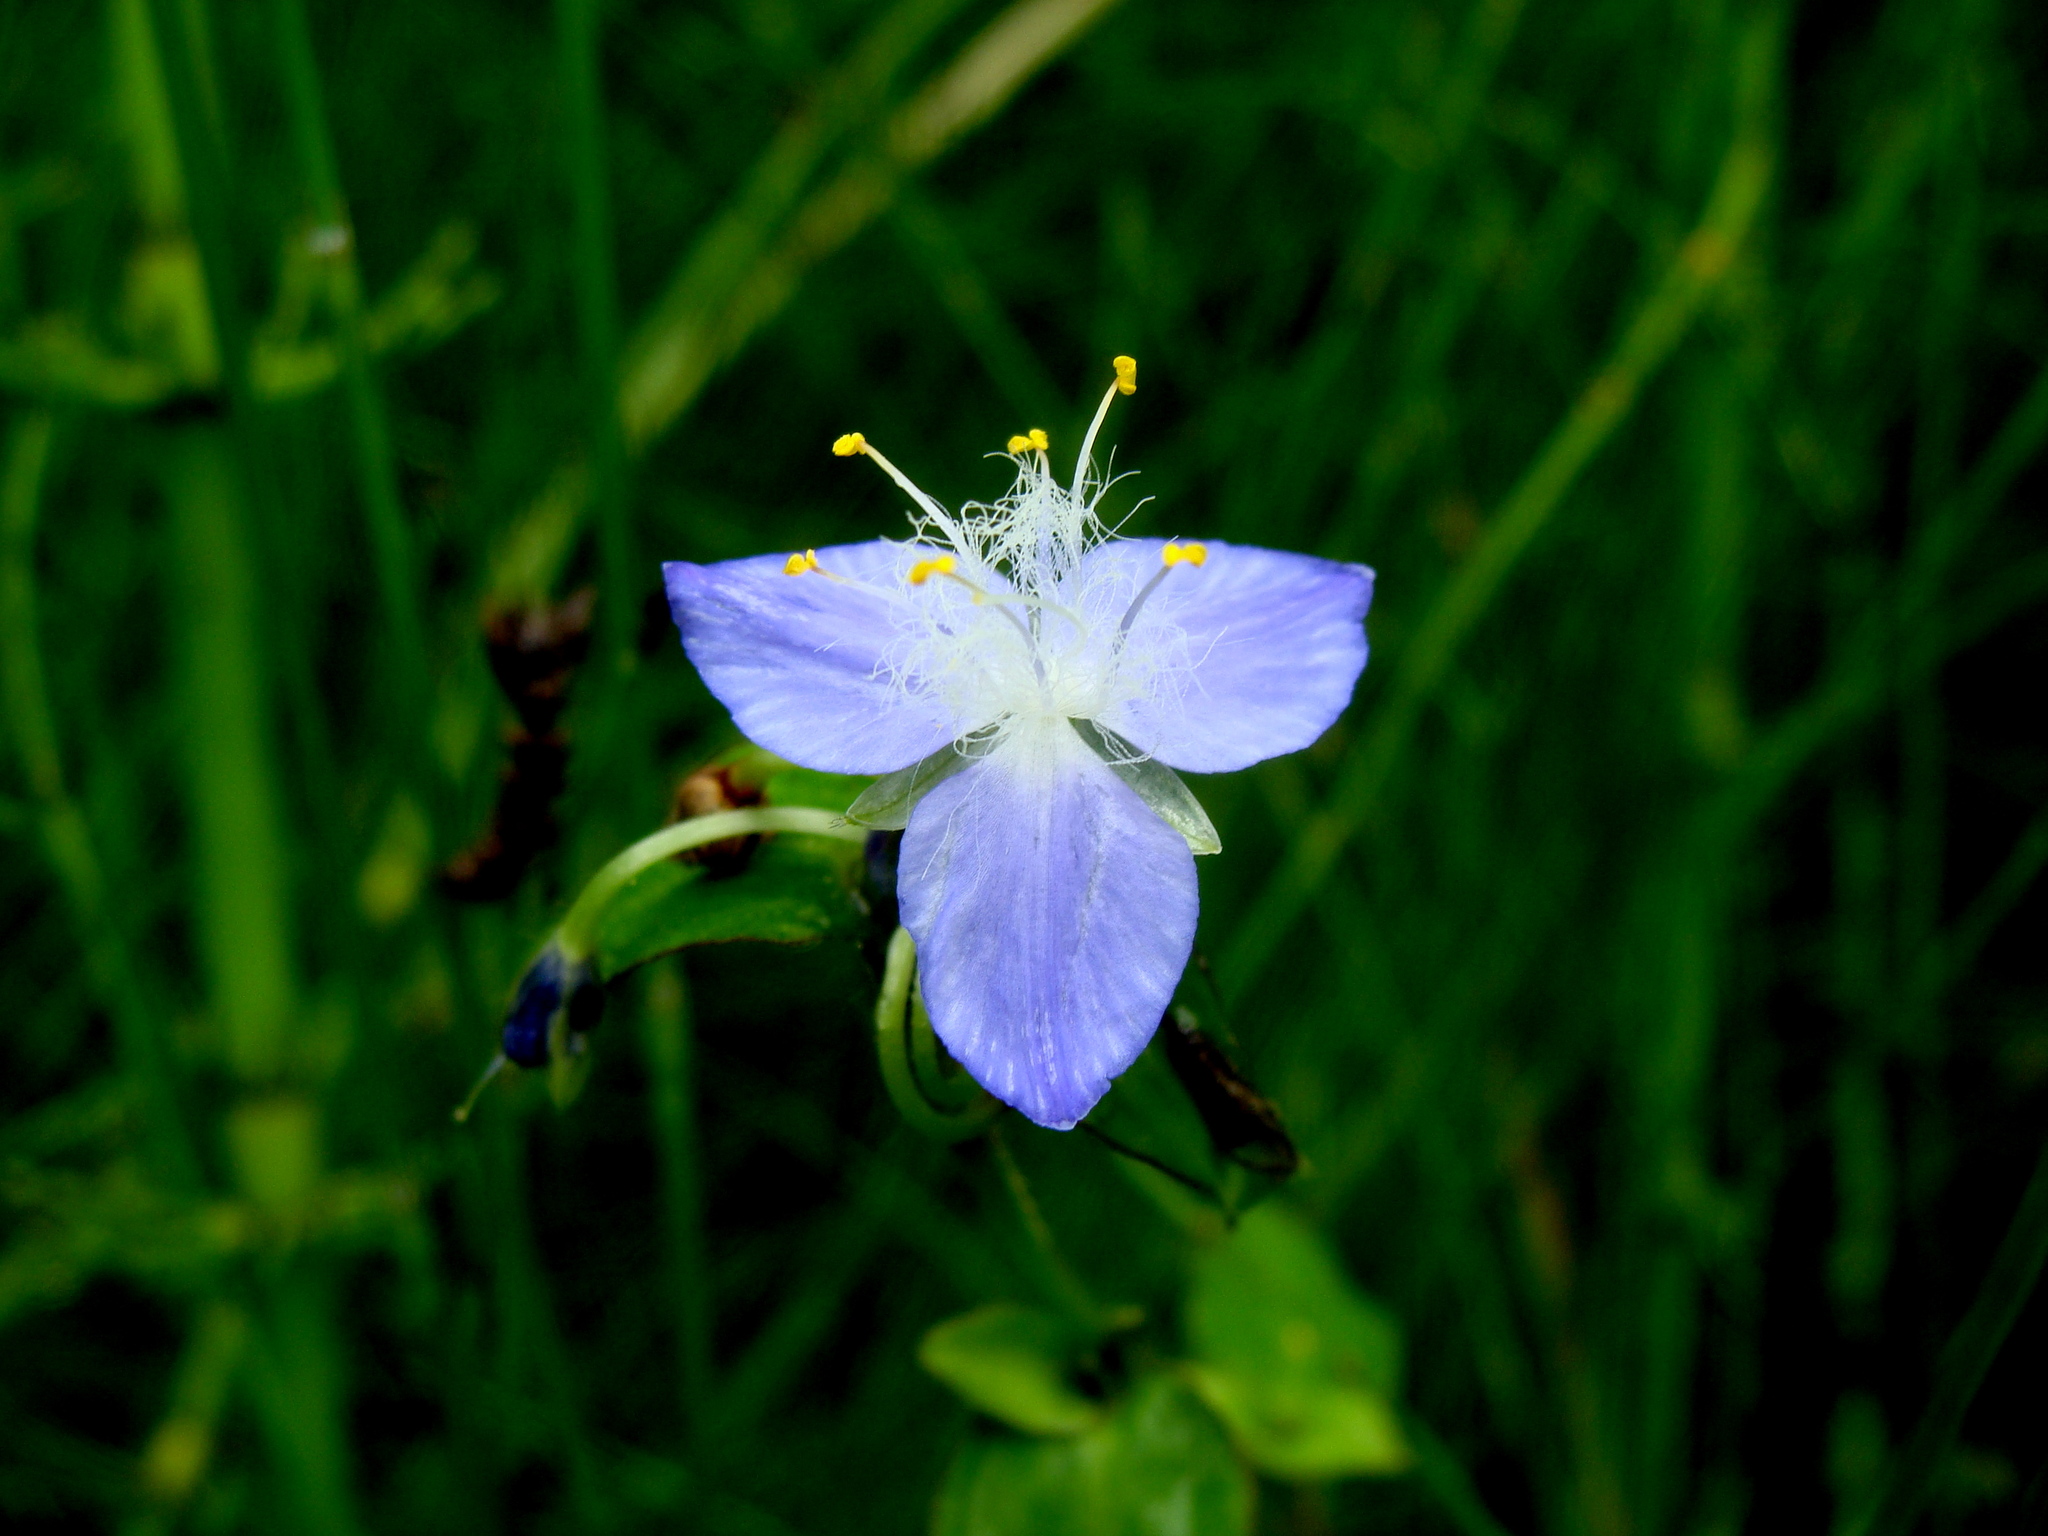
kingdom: Plantae
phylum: Tracheophyta
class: Liliopsida
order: Commelinales
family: Commelinaceae
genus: Elasis
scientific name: Elasis guatemalensis
